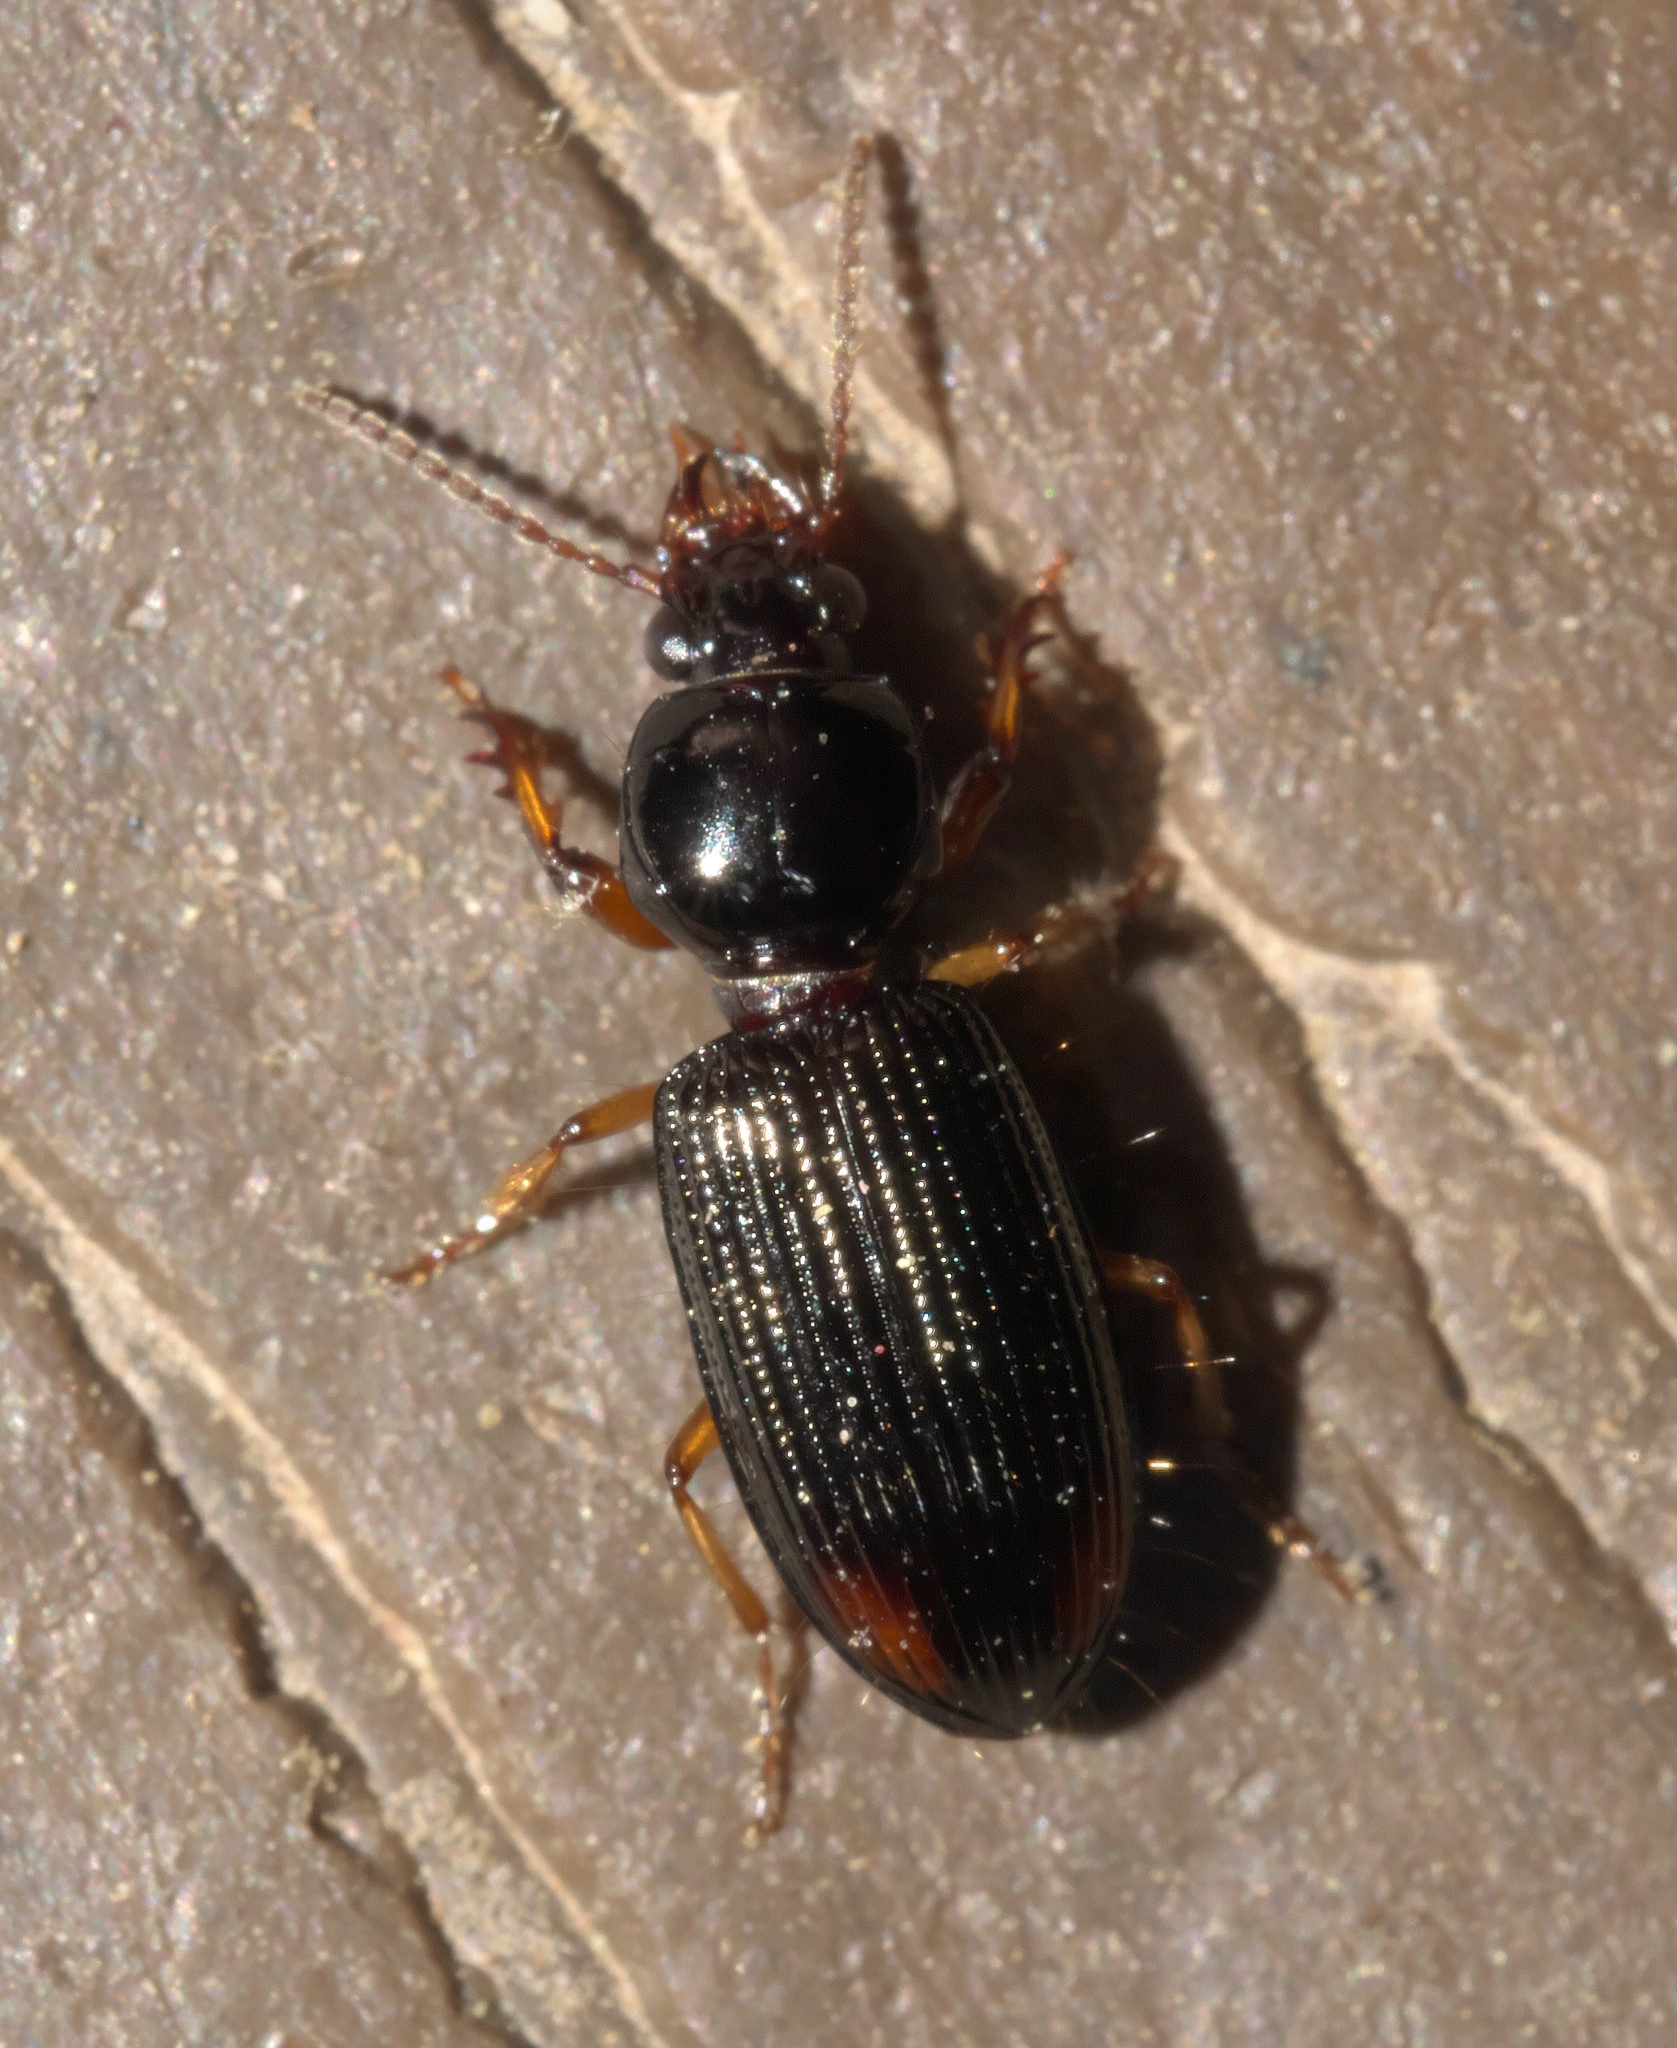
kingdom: Animalia
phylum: Arthropoda
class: Insecta
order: Coleoptera
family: Carabidae
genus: Aspidoglossa
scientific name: Aspidoglossa subangulata
